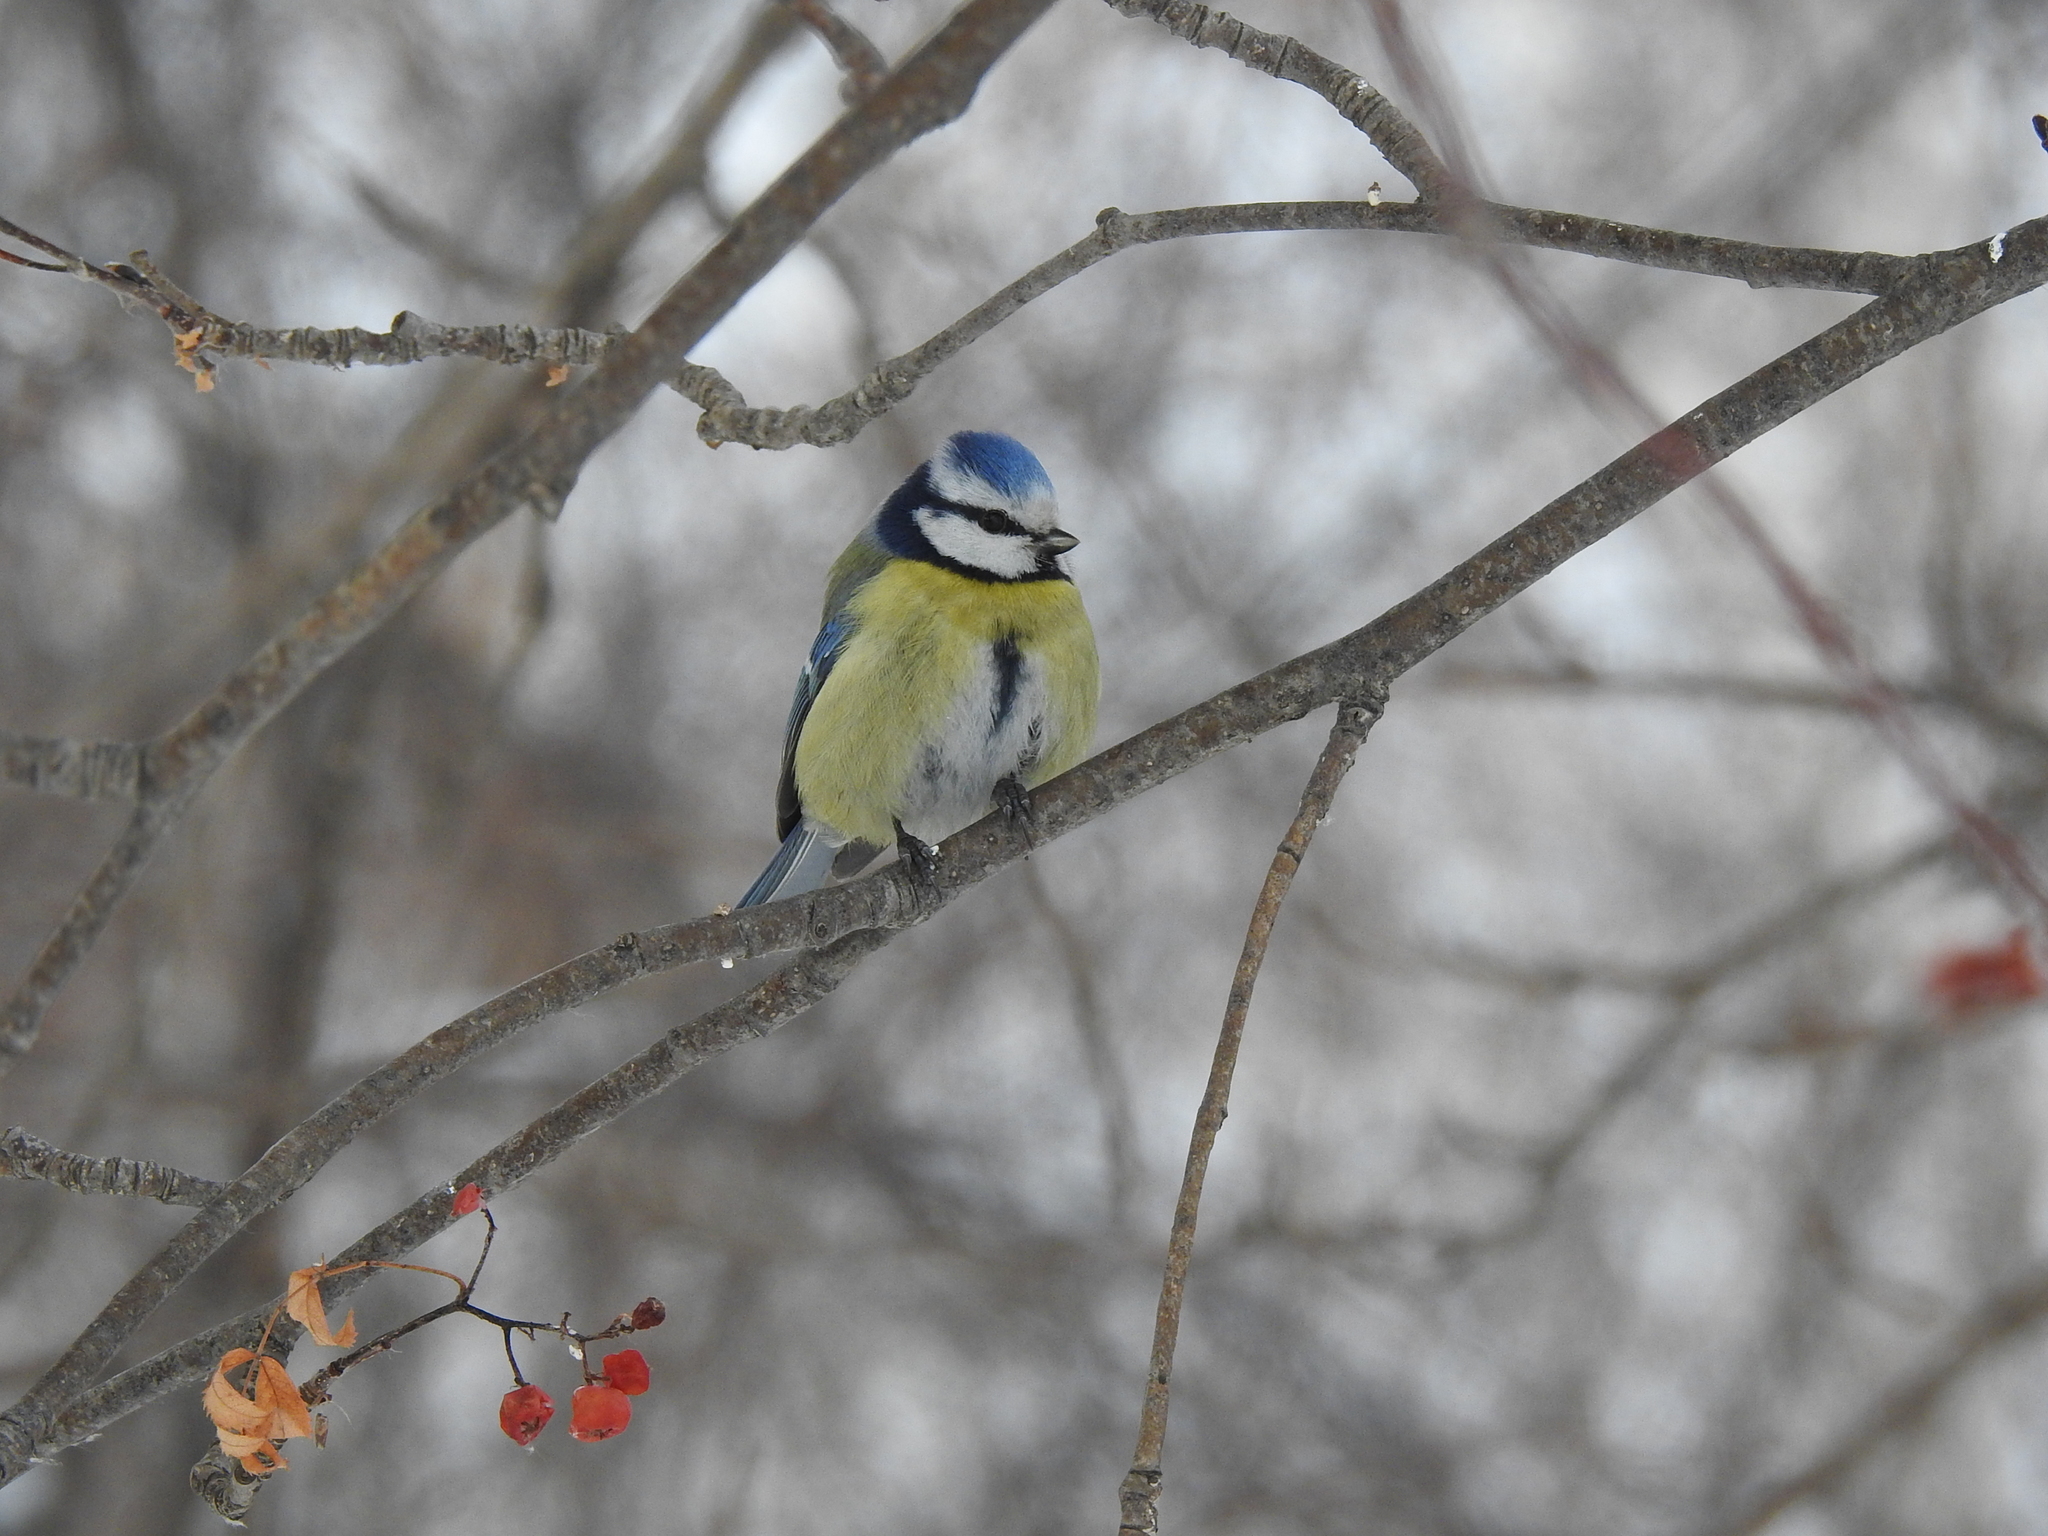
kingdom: Animalia
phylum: Chordata
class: Aves
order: Passeriformes
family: Paridae
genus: Cyanistes
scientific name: Cyanistes caeruleus
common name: Eurasian blue tit
